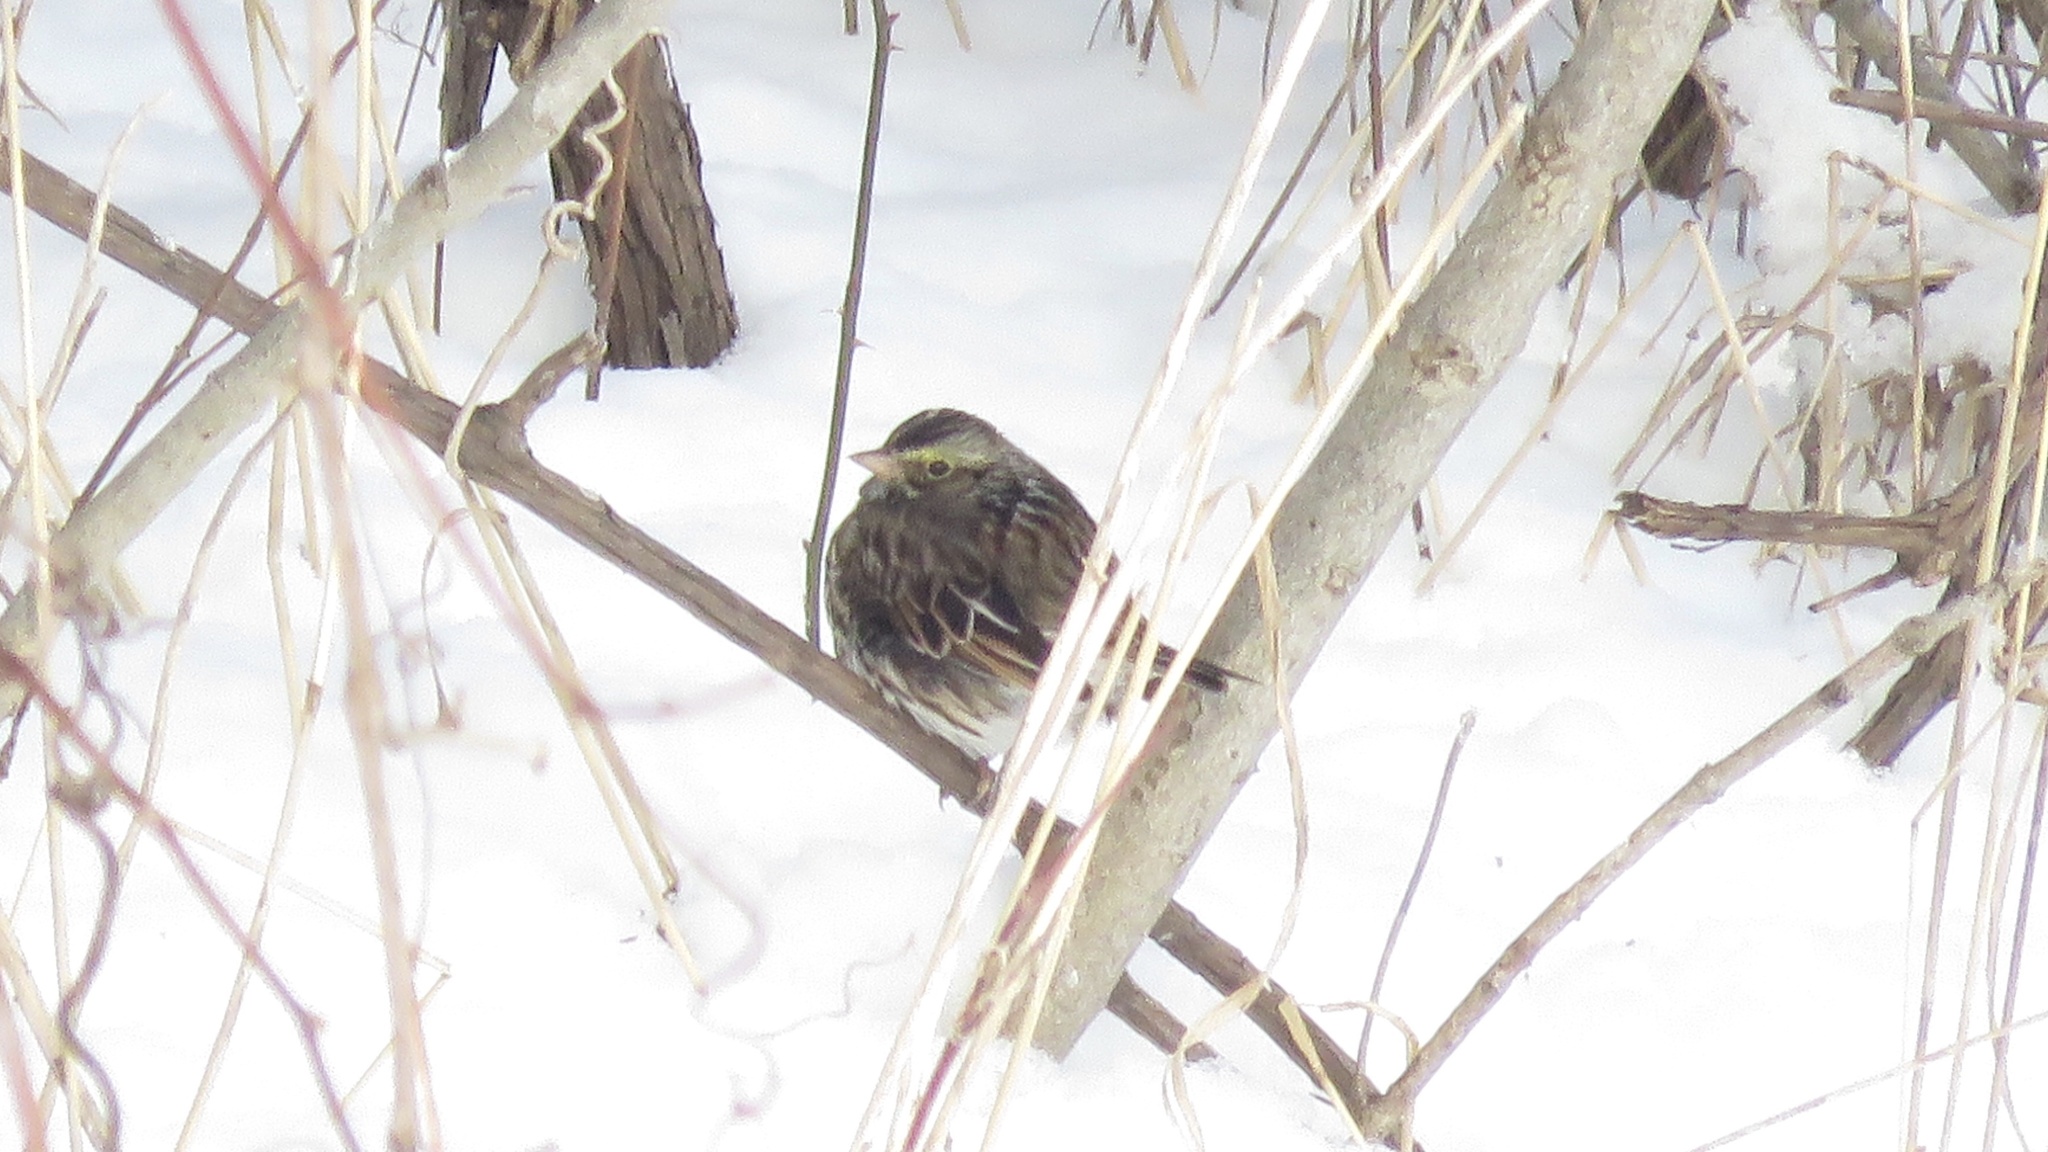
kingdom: Animalia
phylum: Chordata
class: Aves
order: Passeriformes
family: Passerellidae
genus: Passerculus
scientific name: Passerculus sandwichensis
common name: Savannah sparrow
